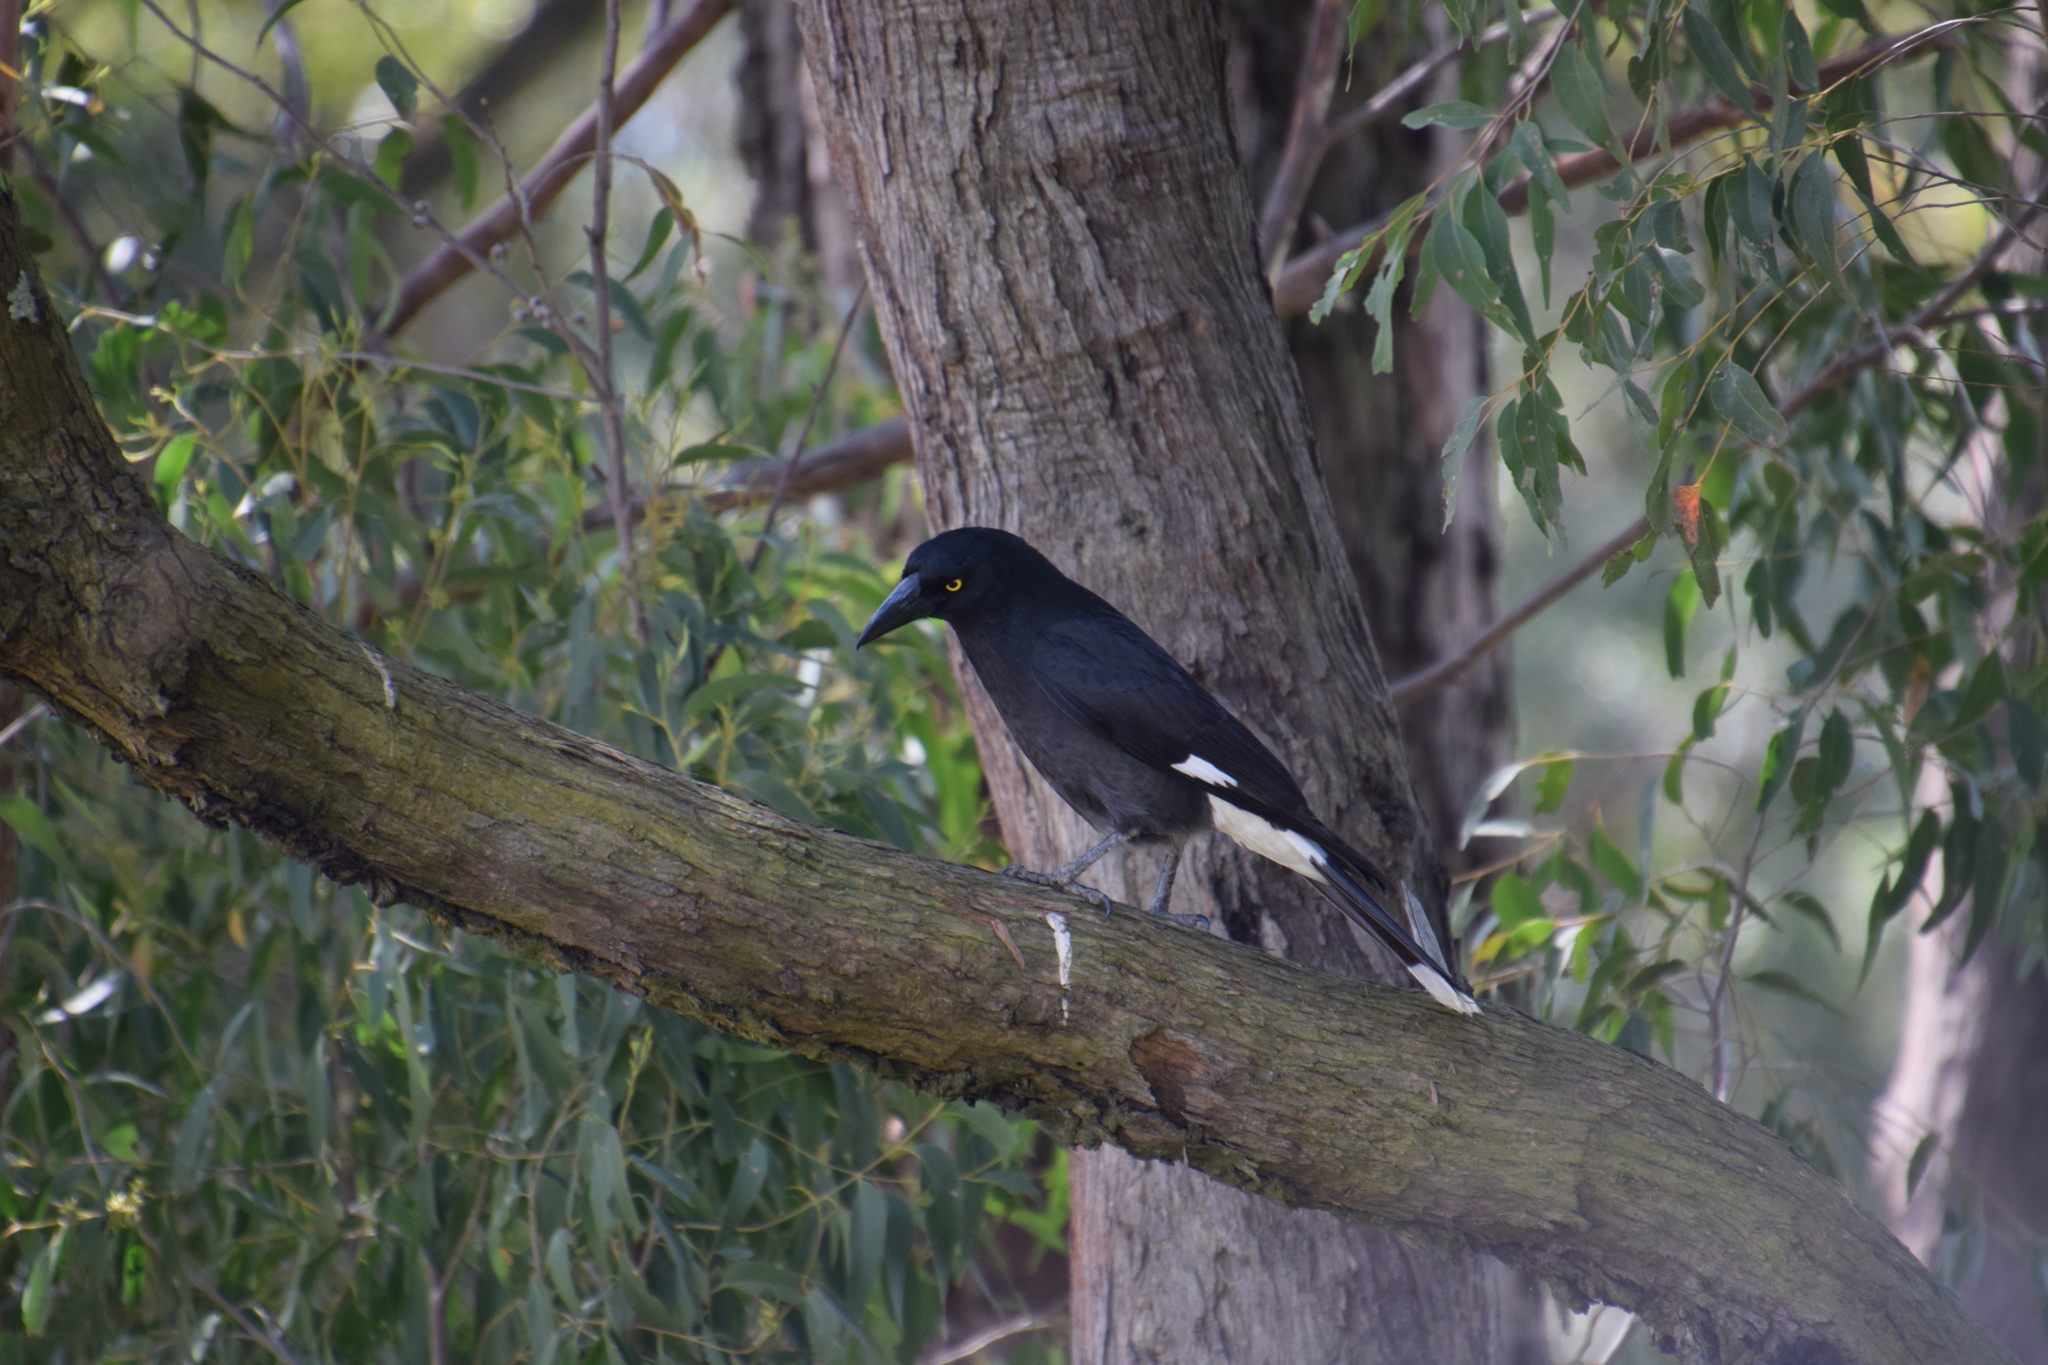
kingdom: Animalia
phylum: Chordata
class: Aves
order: Passeriformes
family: Cracticidae
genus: Strepera
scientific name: Strepera graculina
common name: Pied currawong
